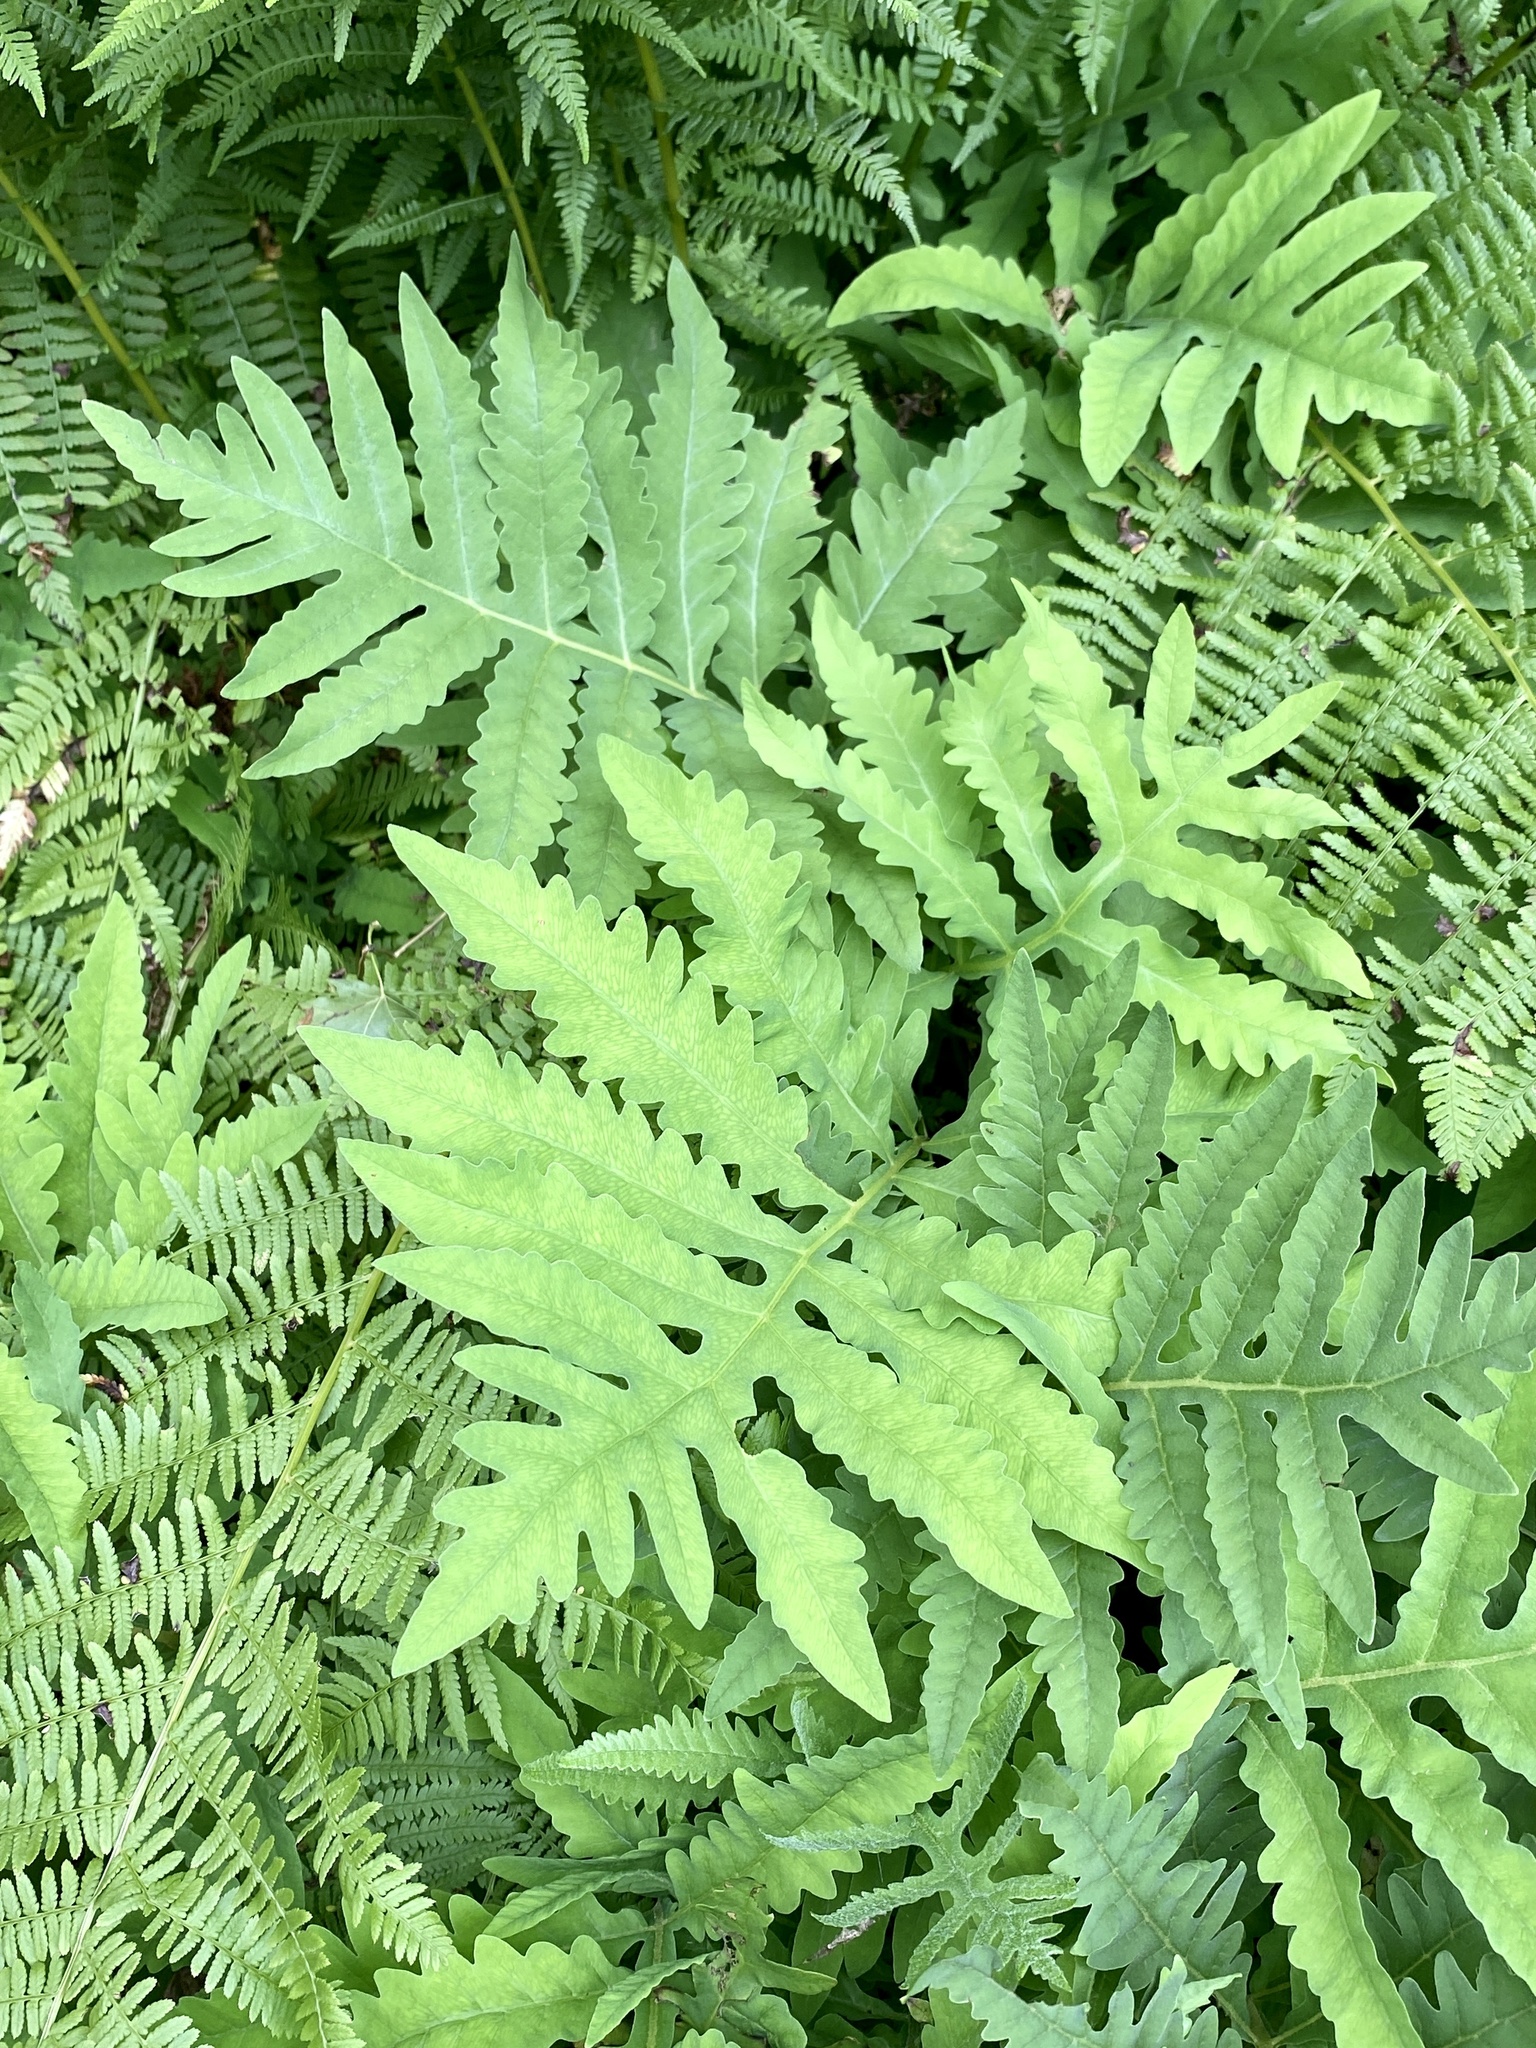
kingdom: Plantae
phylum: Tracheophyta
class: Polypodiopsida
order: Polypodiales
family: Onocleaceae
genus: Onoclea
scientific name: Onoclea sensibilis
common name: Sensitive fern
